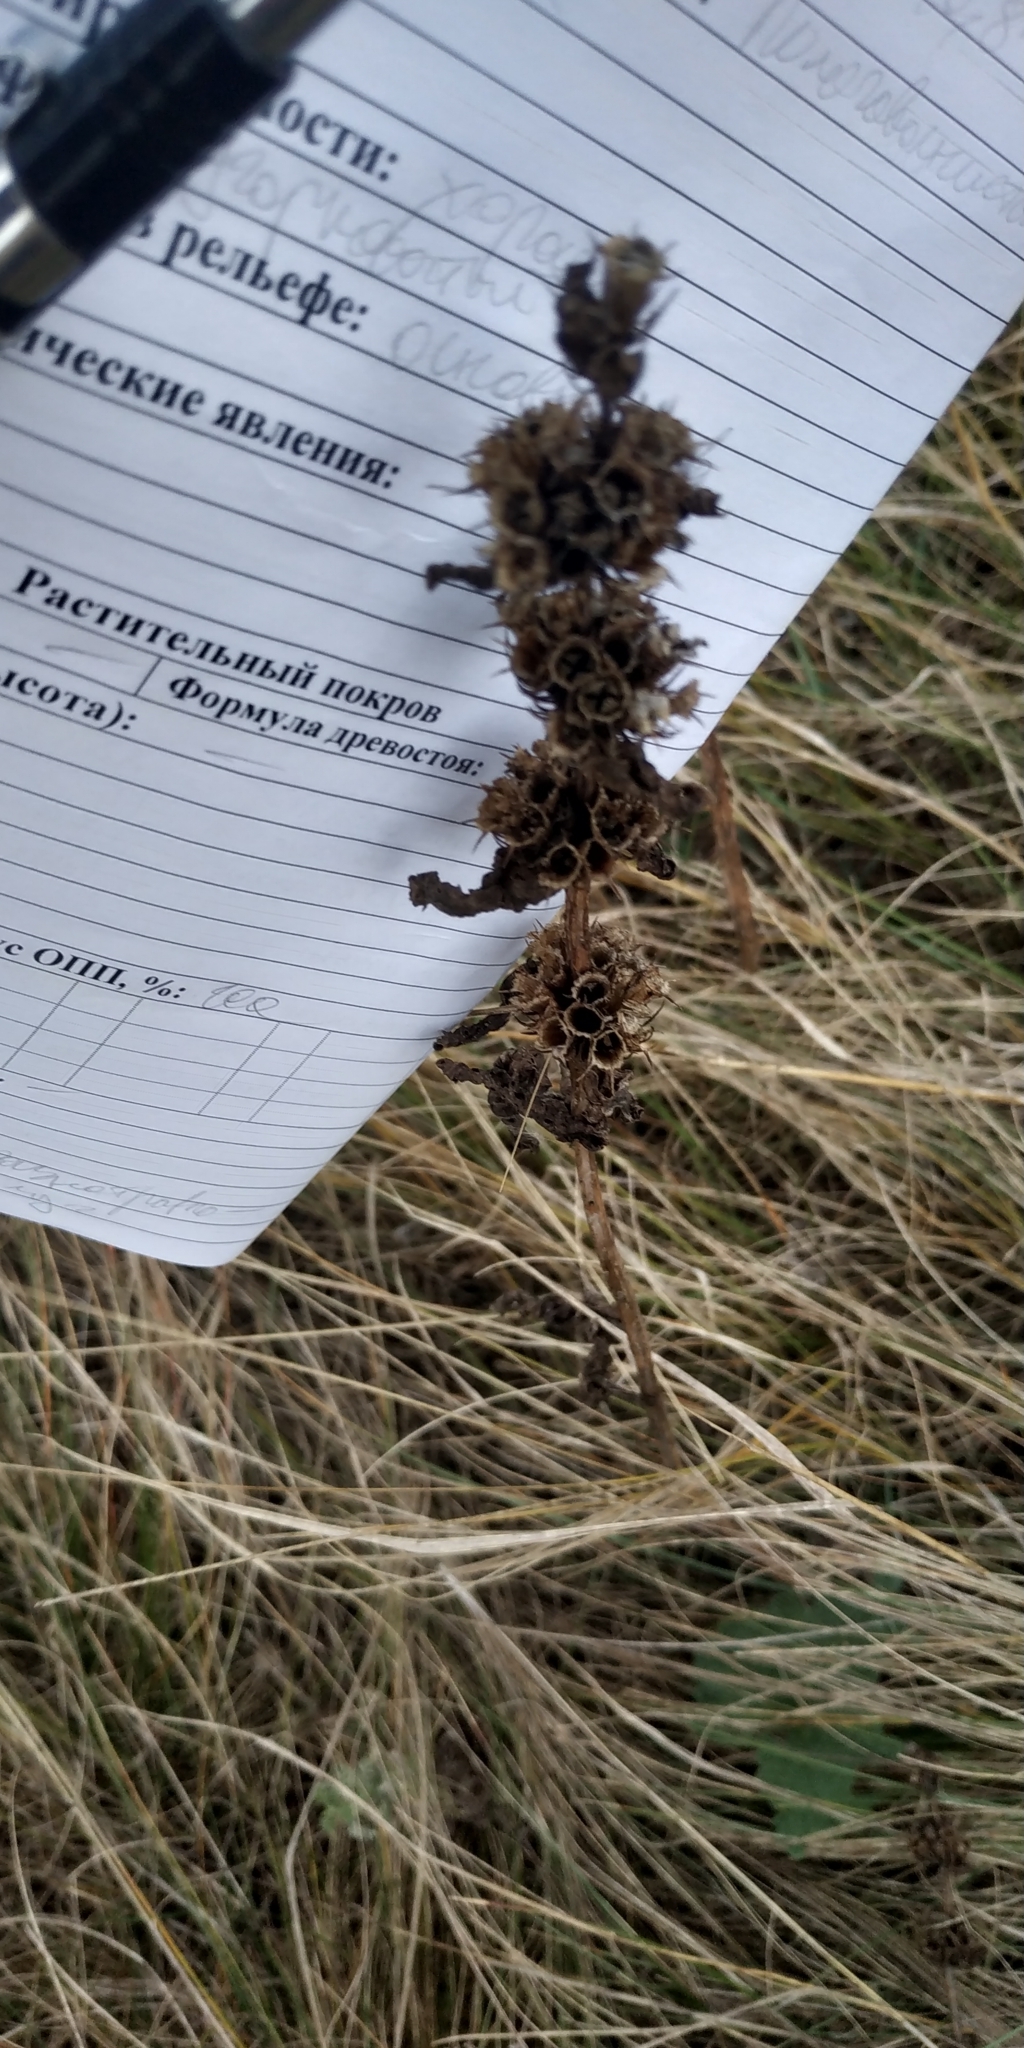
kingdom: Plantae
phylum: Tracheophyta
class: Magnoliopsida
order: Lamiales
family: Lamiaceae
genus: Phlomoides
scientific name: Phlomoides tuberosa
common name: Tuberous jerusalem sage
